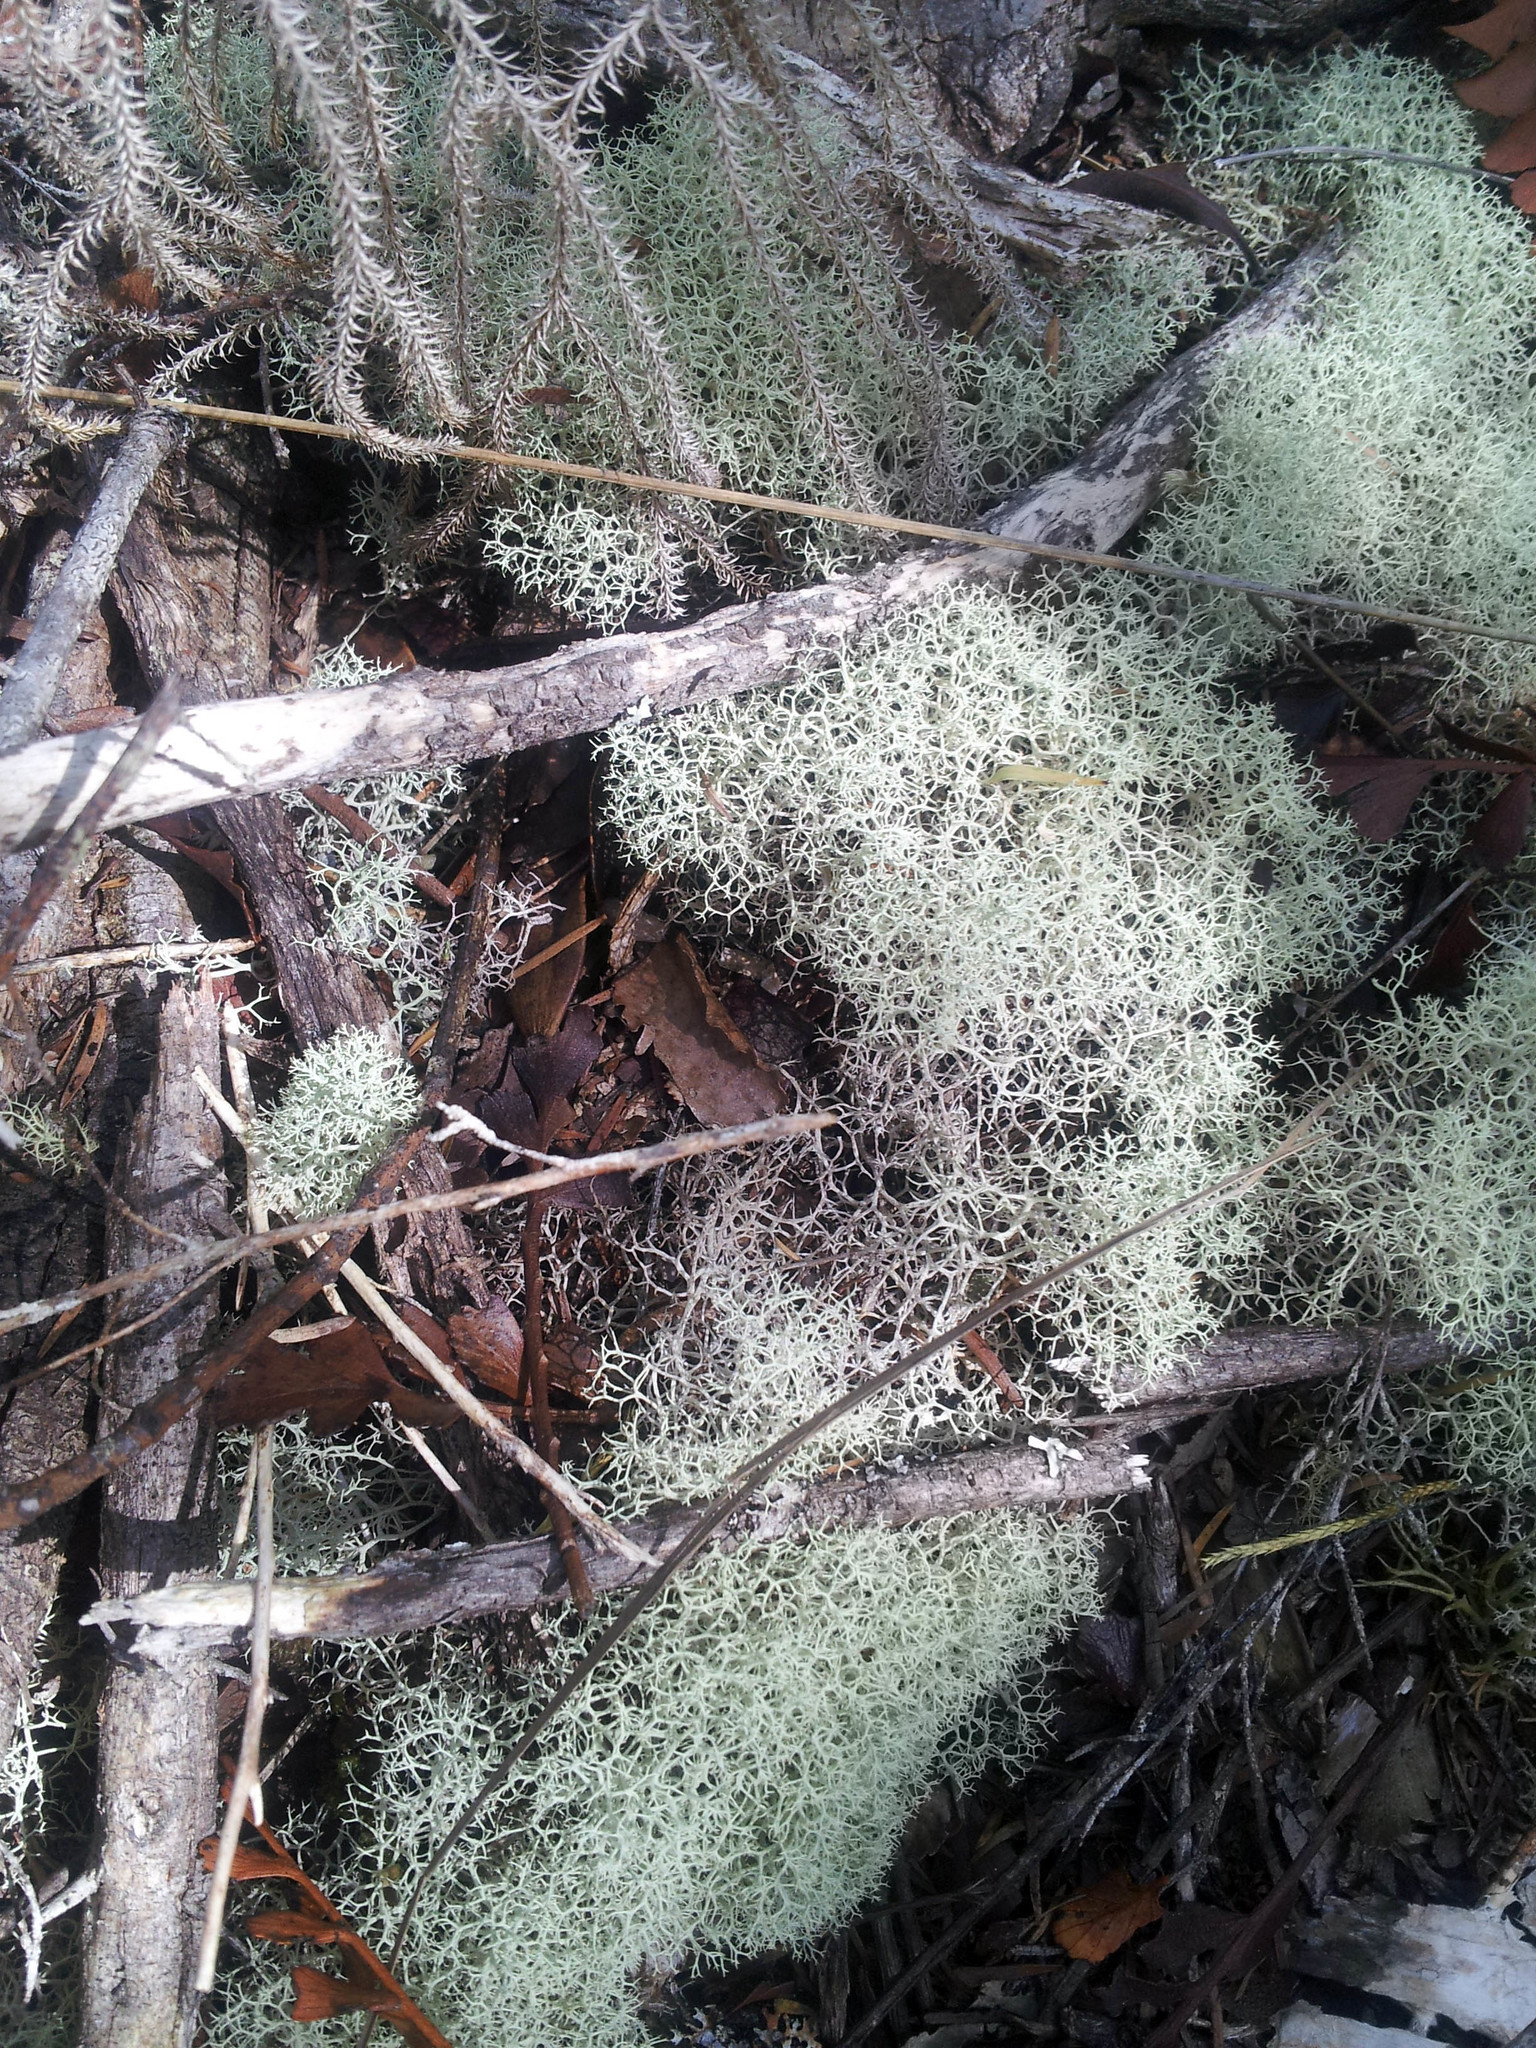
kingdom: Fungi
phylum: Ascomycota
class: Lecanoromycetes
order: Lecanorales
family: Cladoniaceae
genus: Cladonia
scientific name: Cladonia confusa
